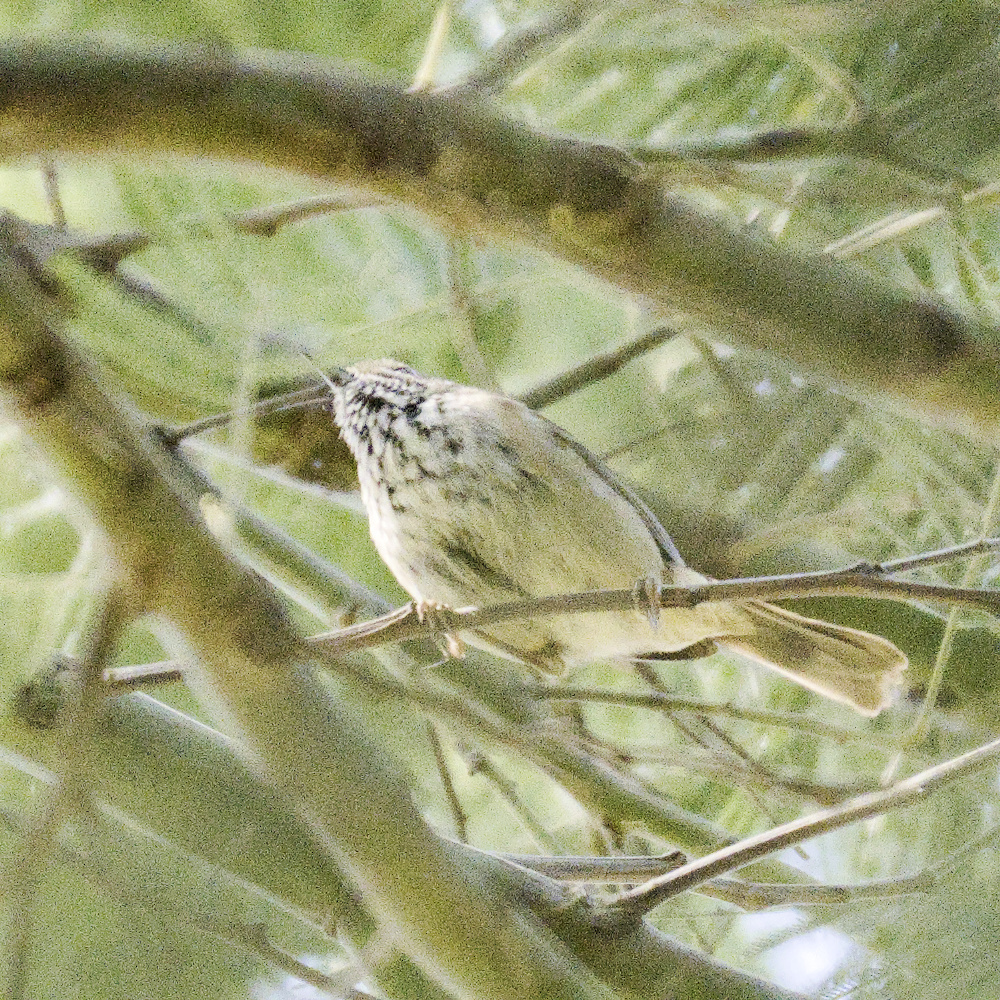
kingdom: Animalia
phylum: Chordata
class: Aves
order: Passeriformes
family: Acanthizidae
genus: Acanthiza
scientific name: Acanthiza pusilla
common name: Brown thornbill
